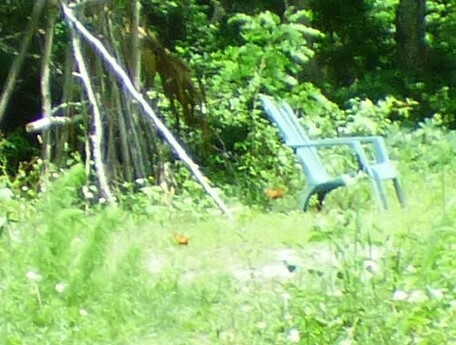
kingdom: Animalia
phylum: Arthropoda
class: Insecta
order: Lepidoptera
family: Nymphalidae
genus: Danaus
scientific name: Danaus plexippus
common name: Monarch
